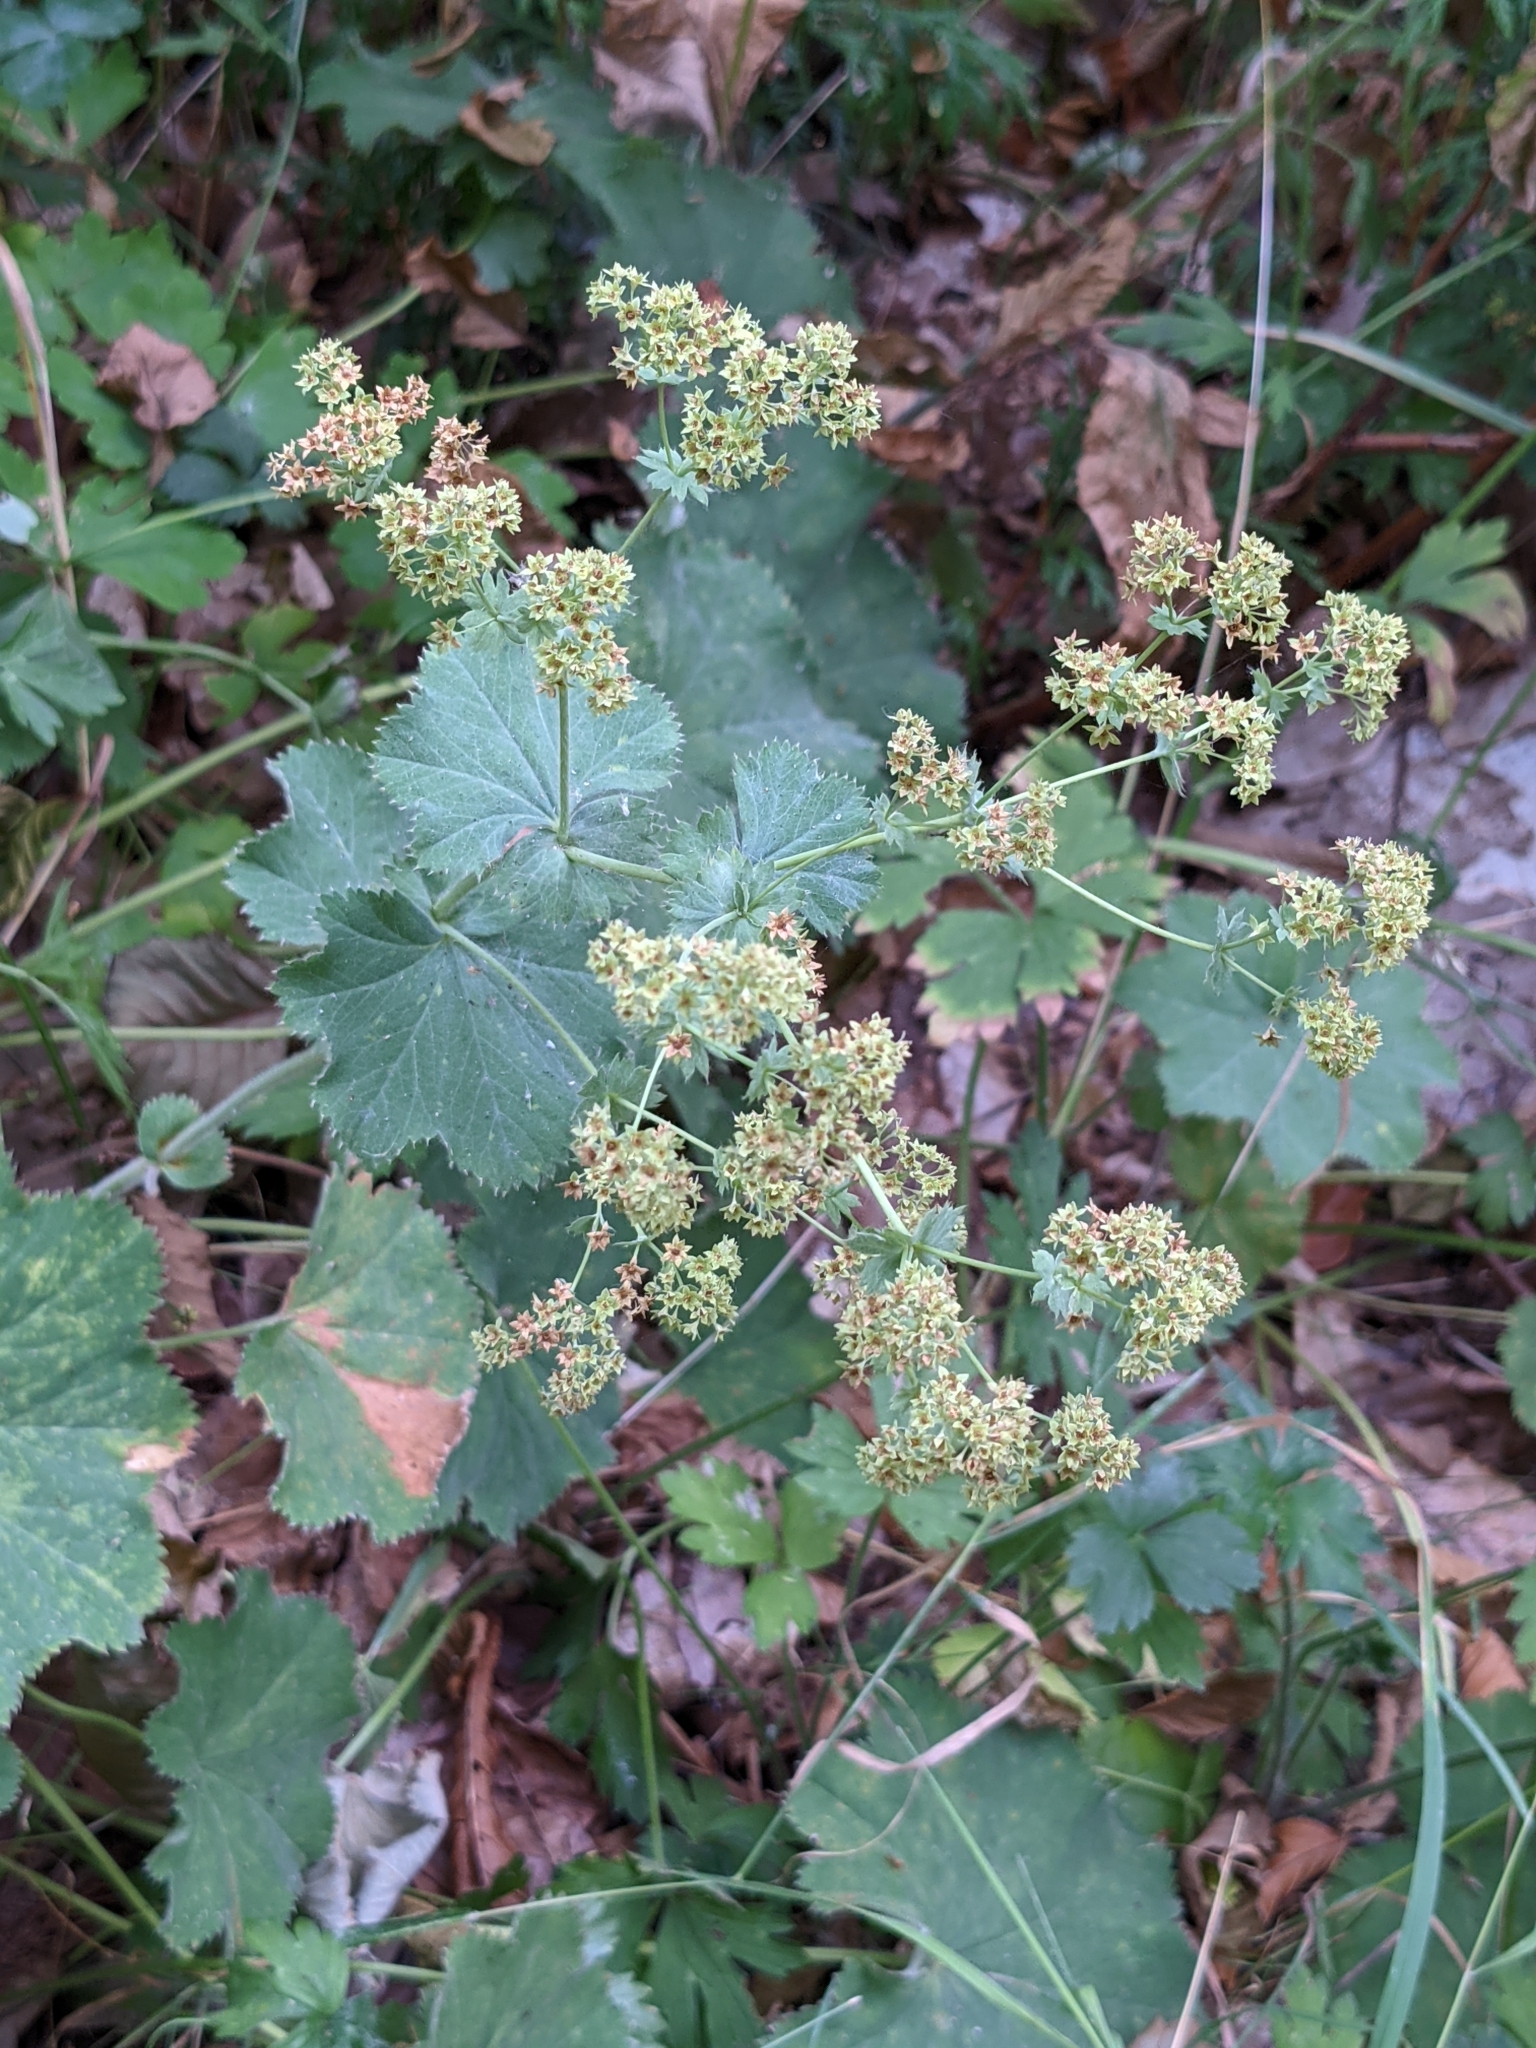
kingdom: Plantae
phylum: Tracheophyta
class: Magnoliopsida
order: Rosales
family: Rosaceae
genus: Alchemilla
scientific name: Alchemilla mollis
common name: Lady's-mantle
